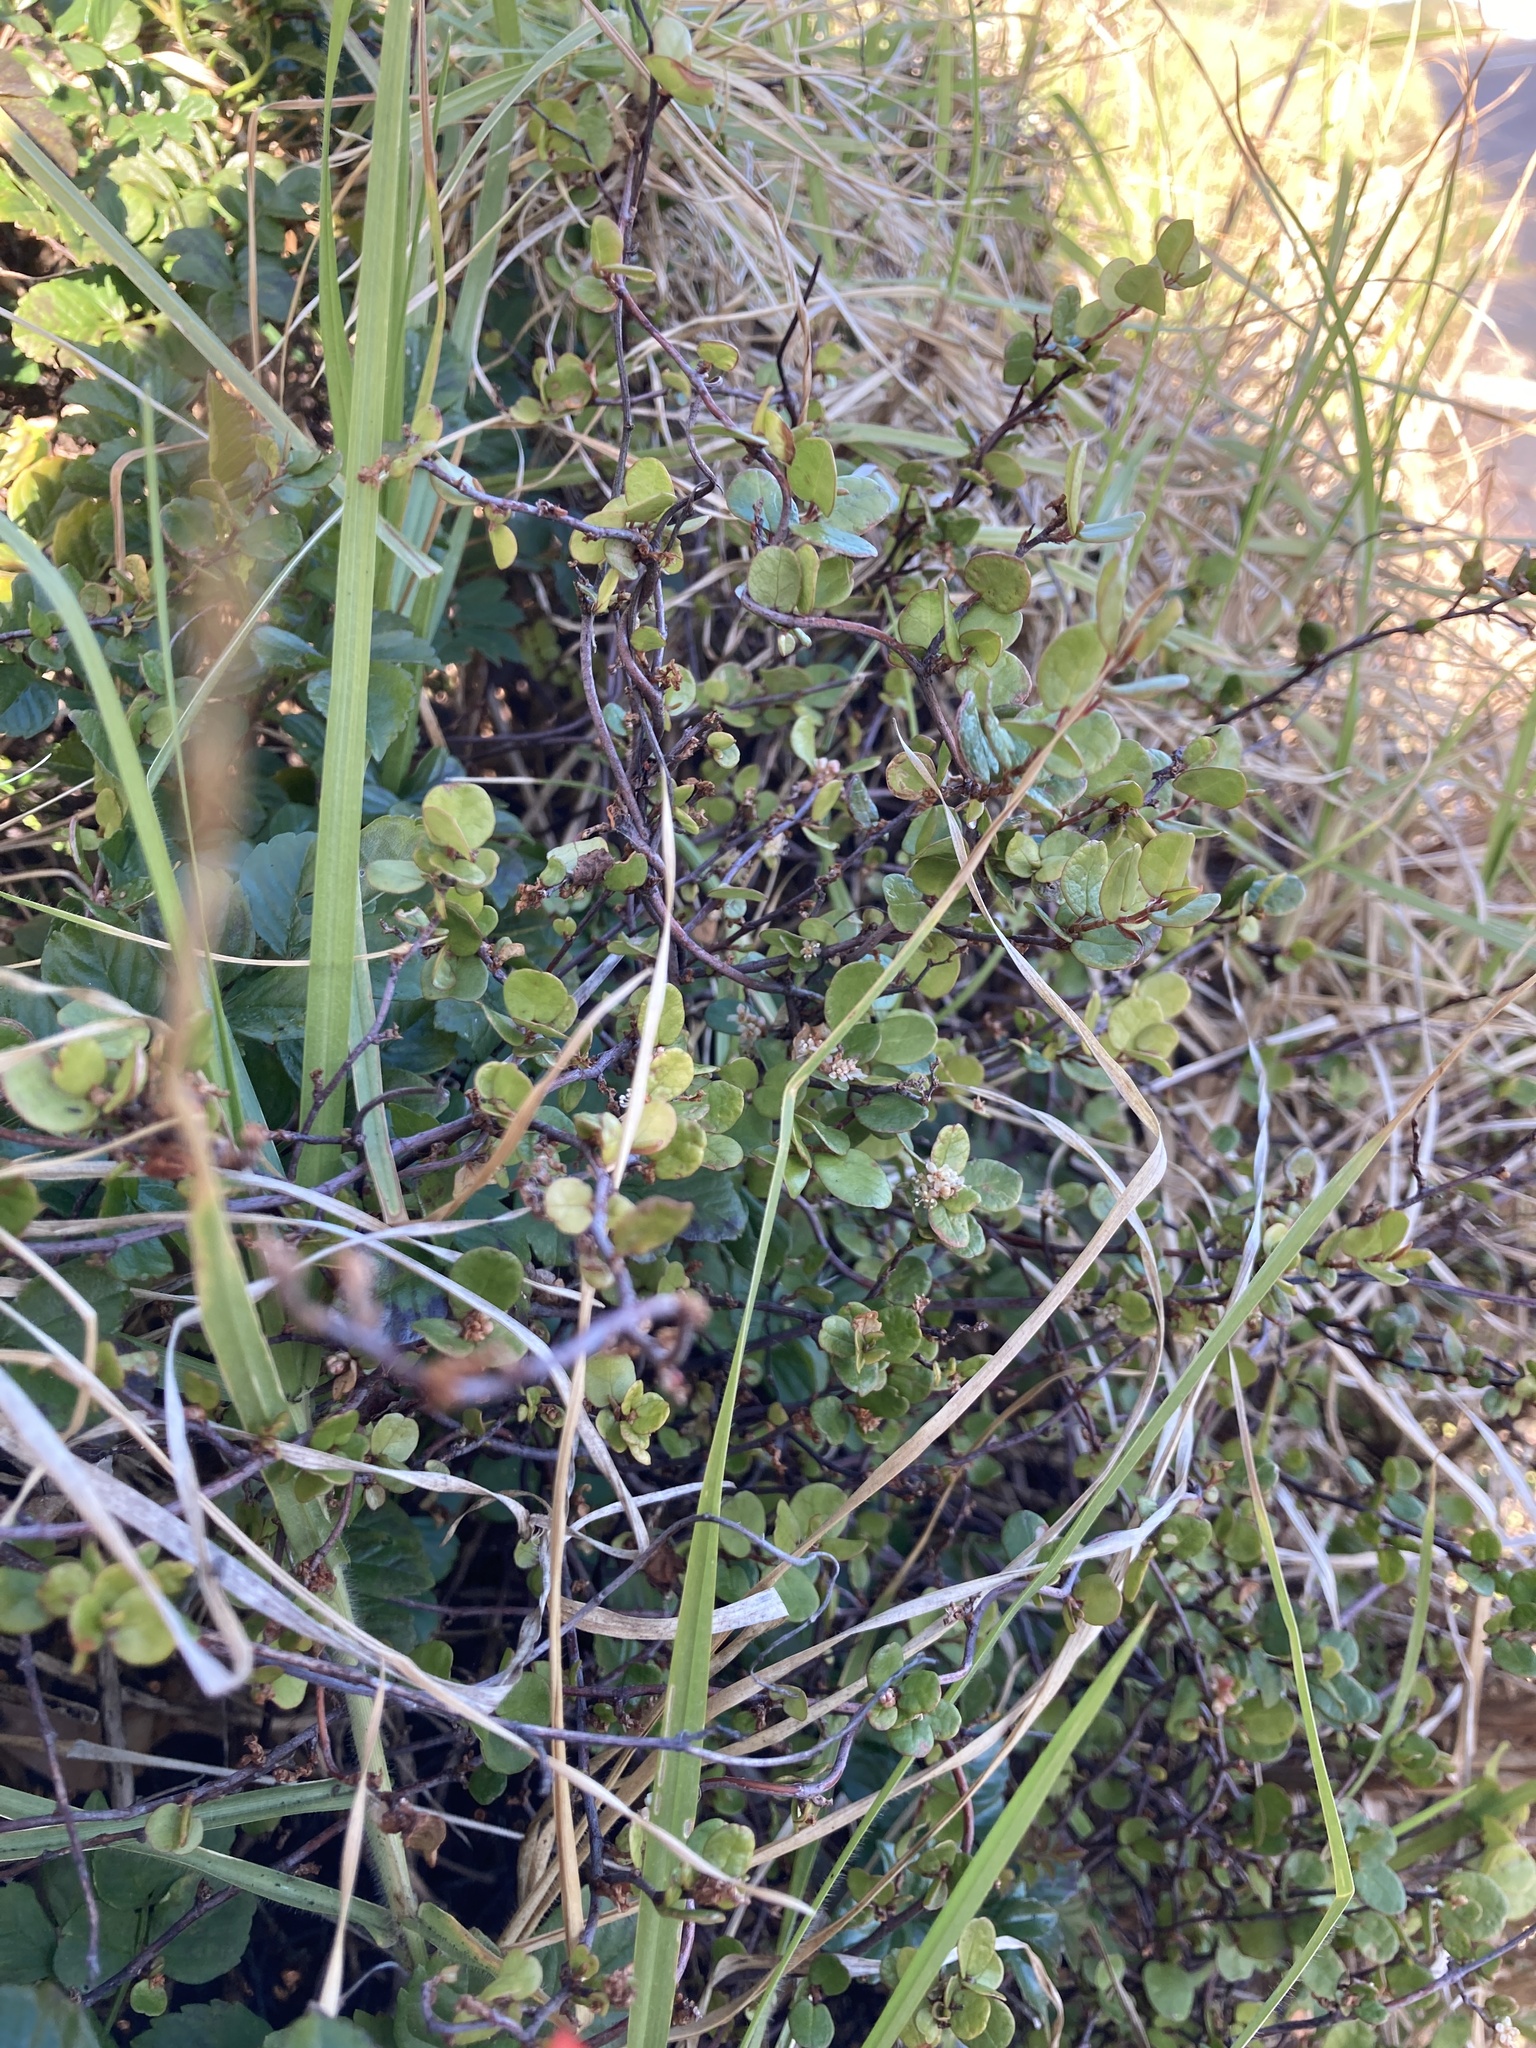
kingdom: Plantae
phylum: Tracheophyta
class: Magnoliopsida
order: Caryophyllales
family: Polygonaceae
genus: Muehlenbeckia
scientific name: Muehlenbeckia complexa
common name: Wireplant
